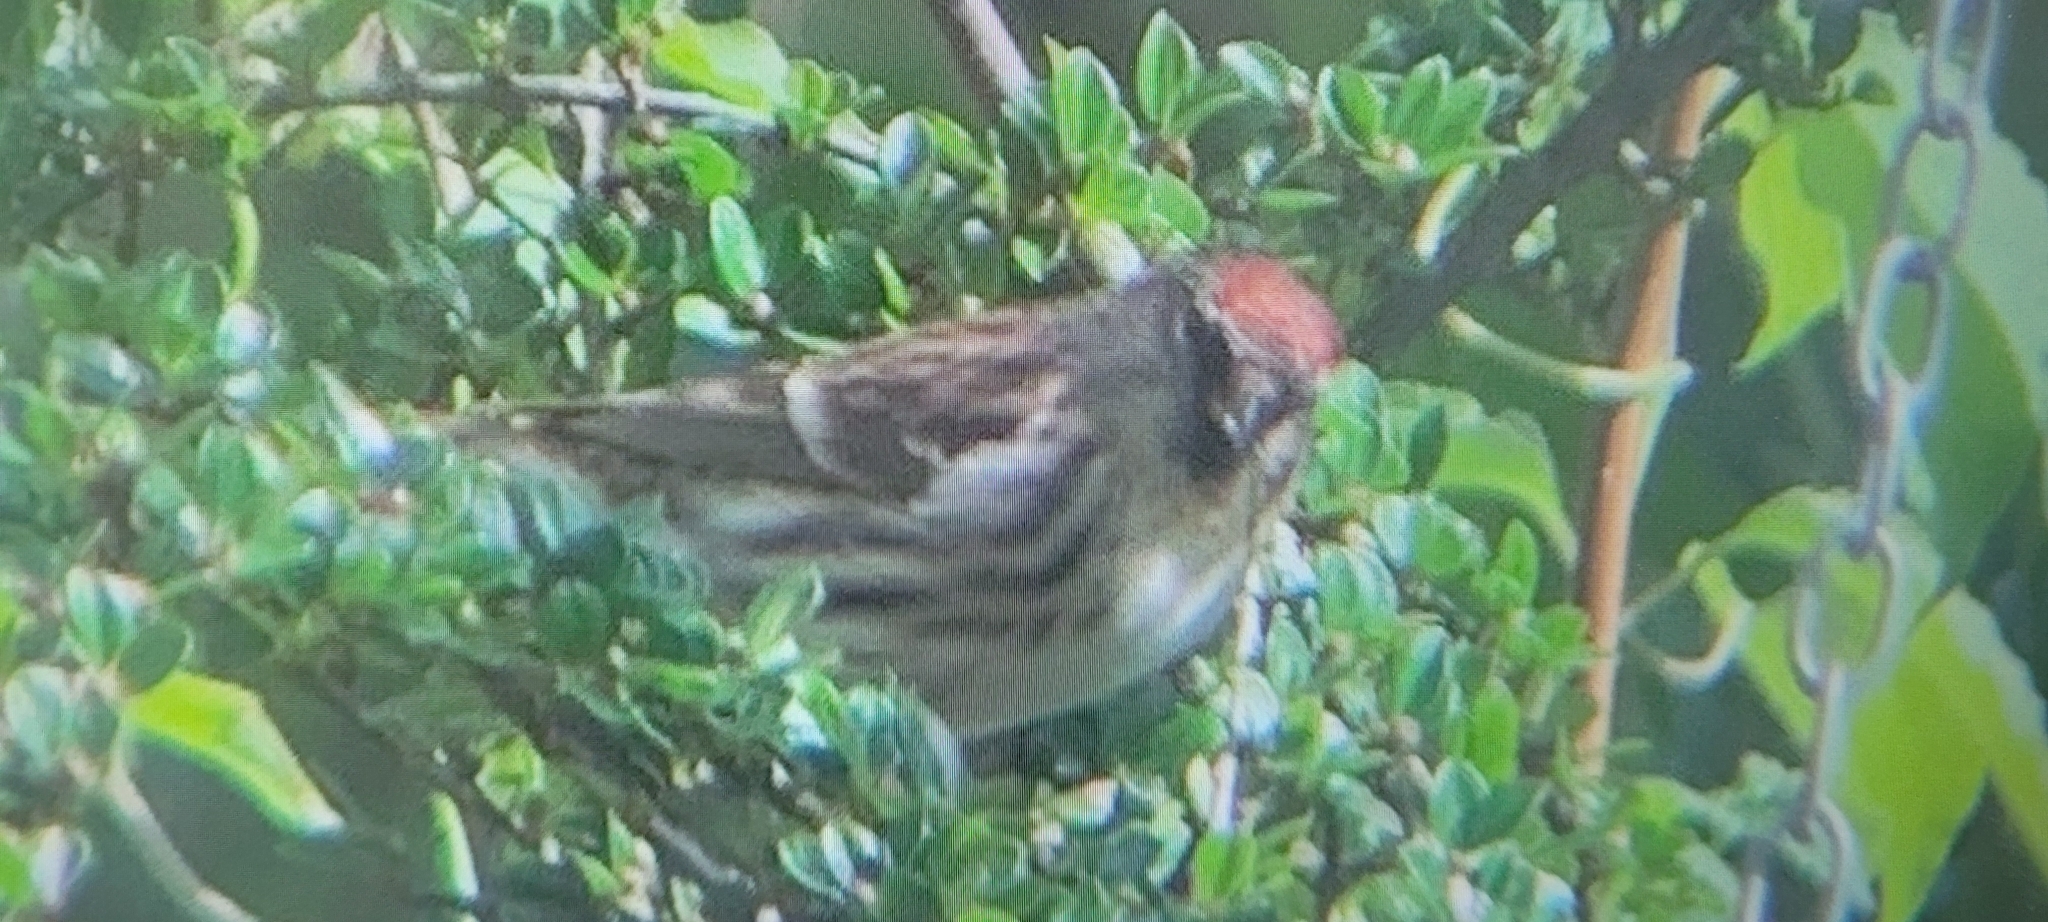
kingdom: Animalia
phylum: Chordata
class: Aves
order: Passeriformes
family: Fringillidae
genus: Acanthis
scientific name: Acanthis flammea
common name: Common redpoll
